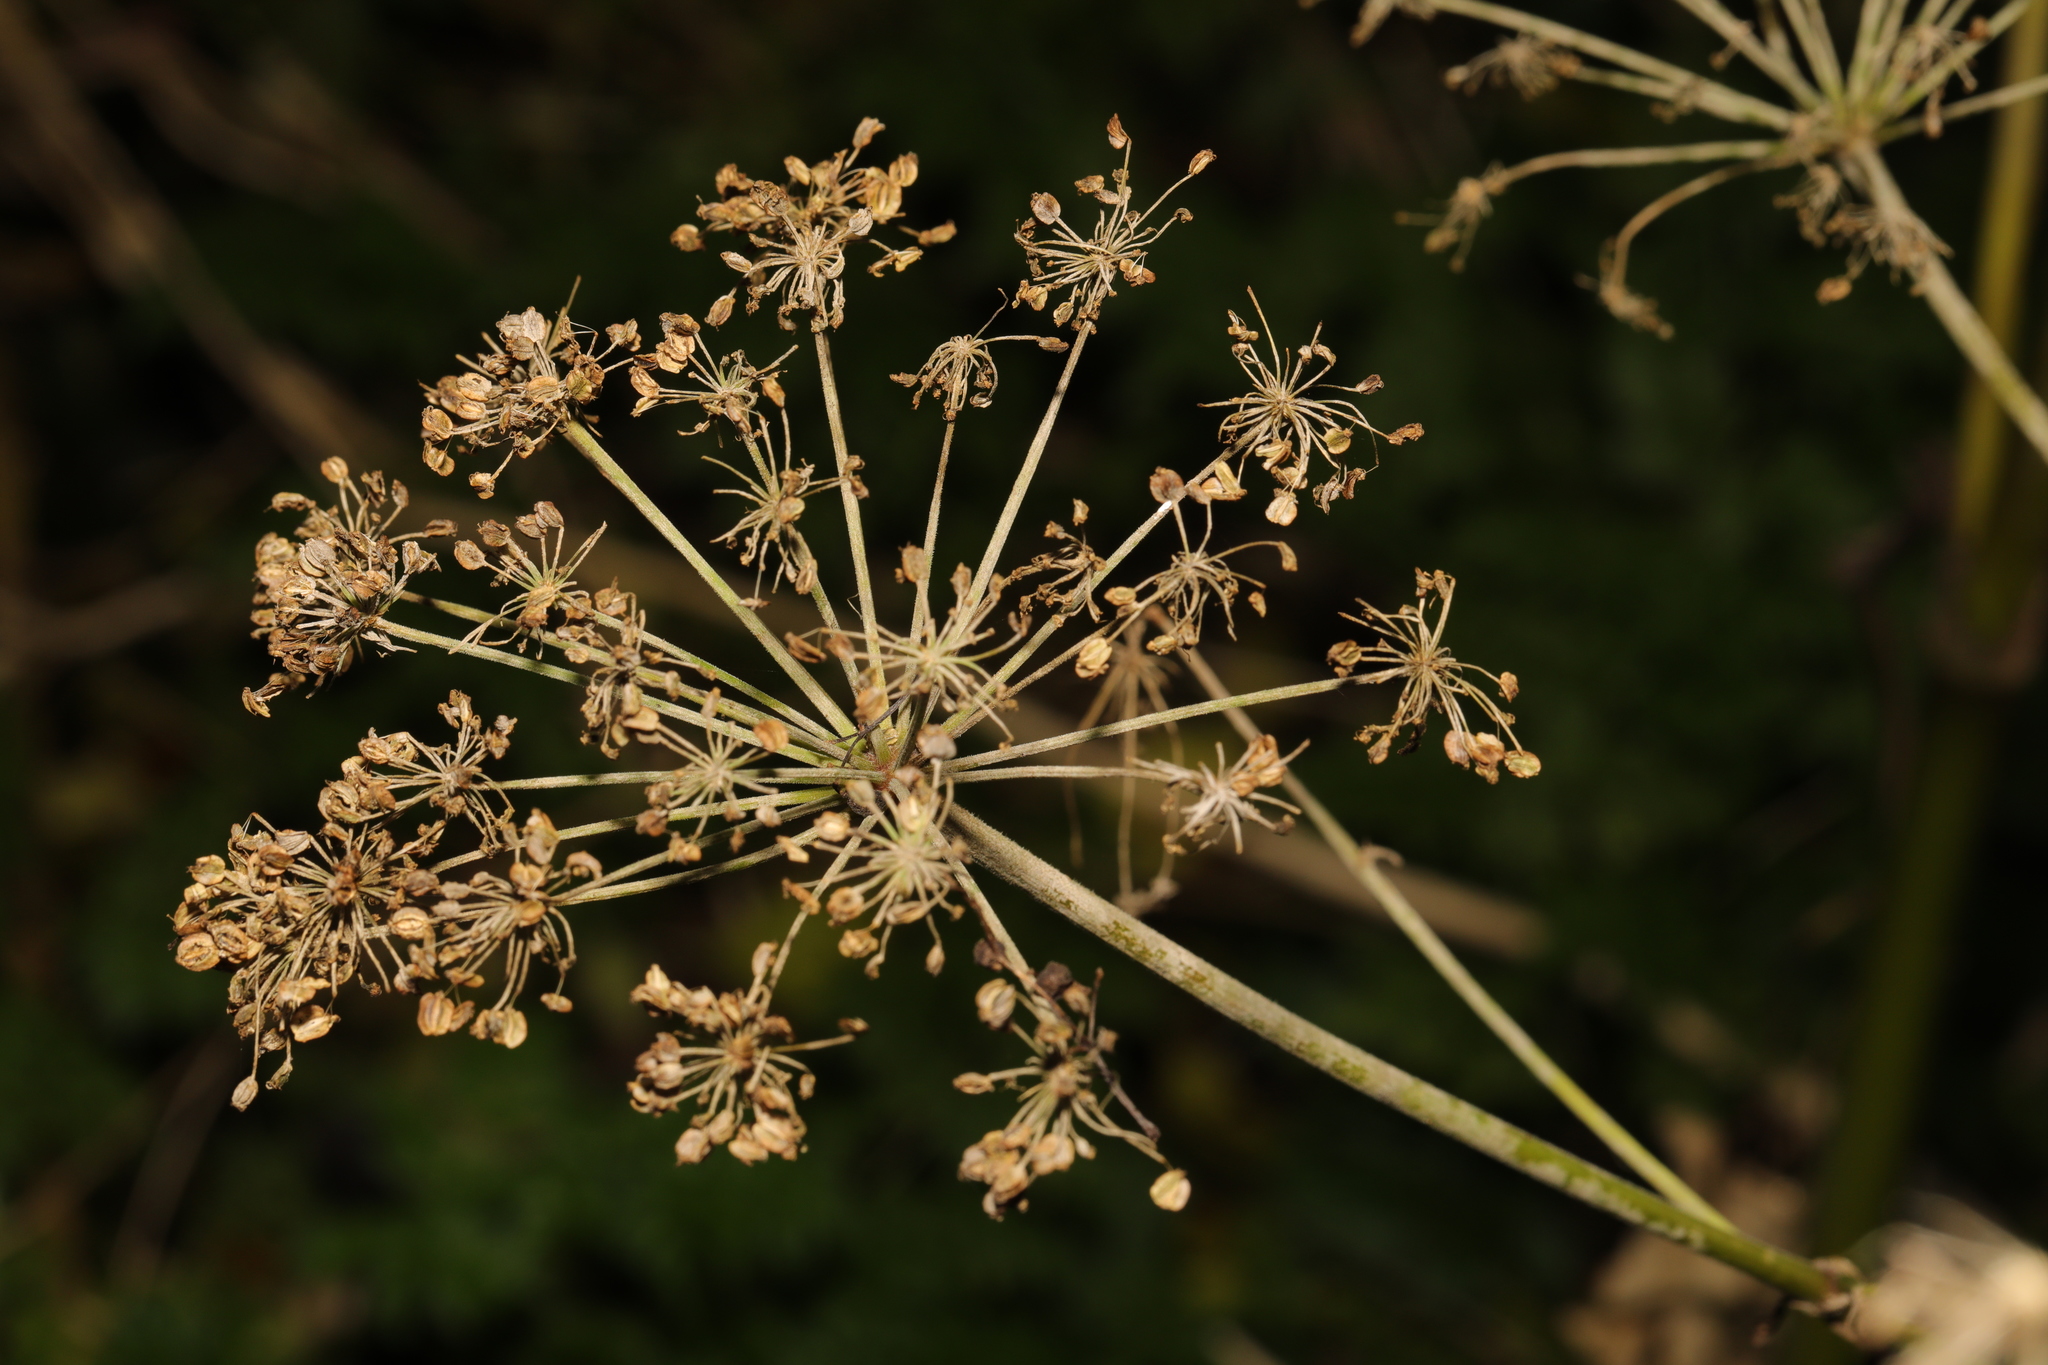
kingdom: Plantae
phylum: Tracheophyta
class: Magnoliopsida
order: Apiales
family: Apiaceae
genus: Heracleum
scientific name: Heracleum sphondylium
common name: Hogweed
